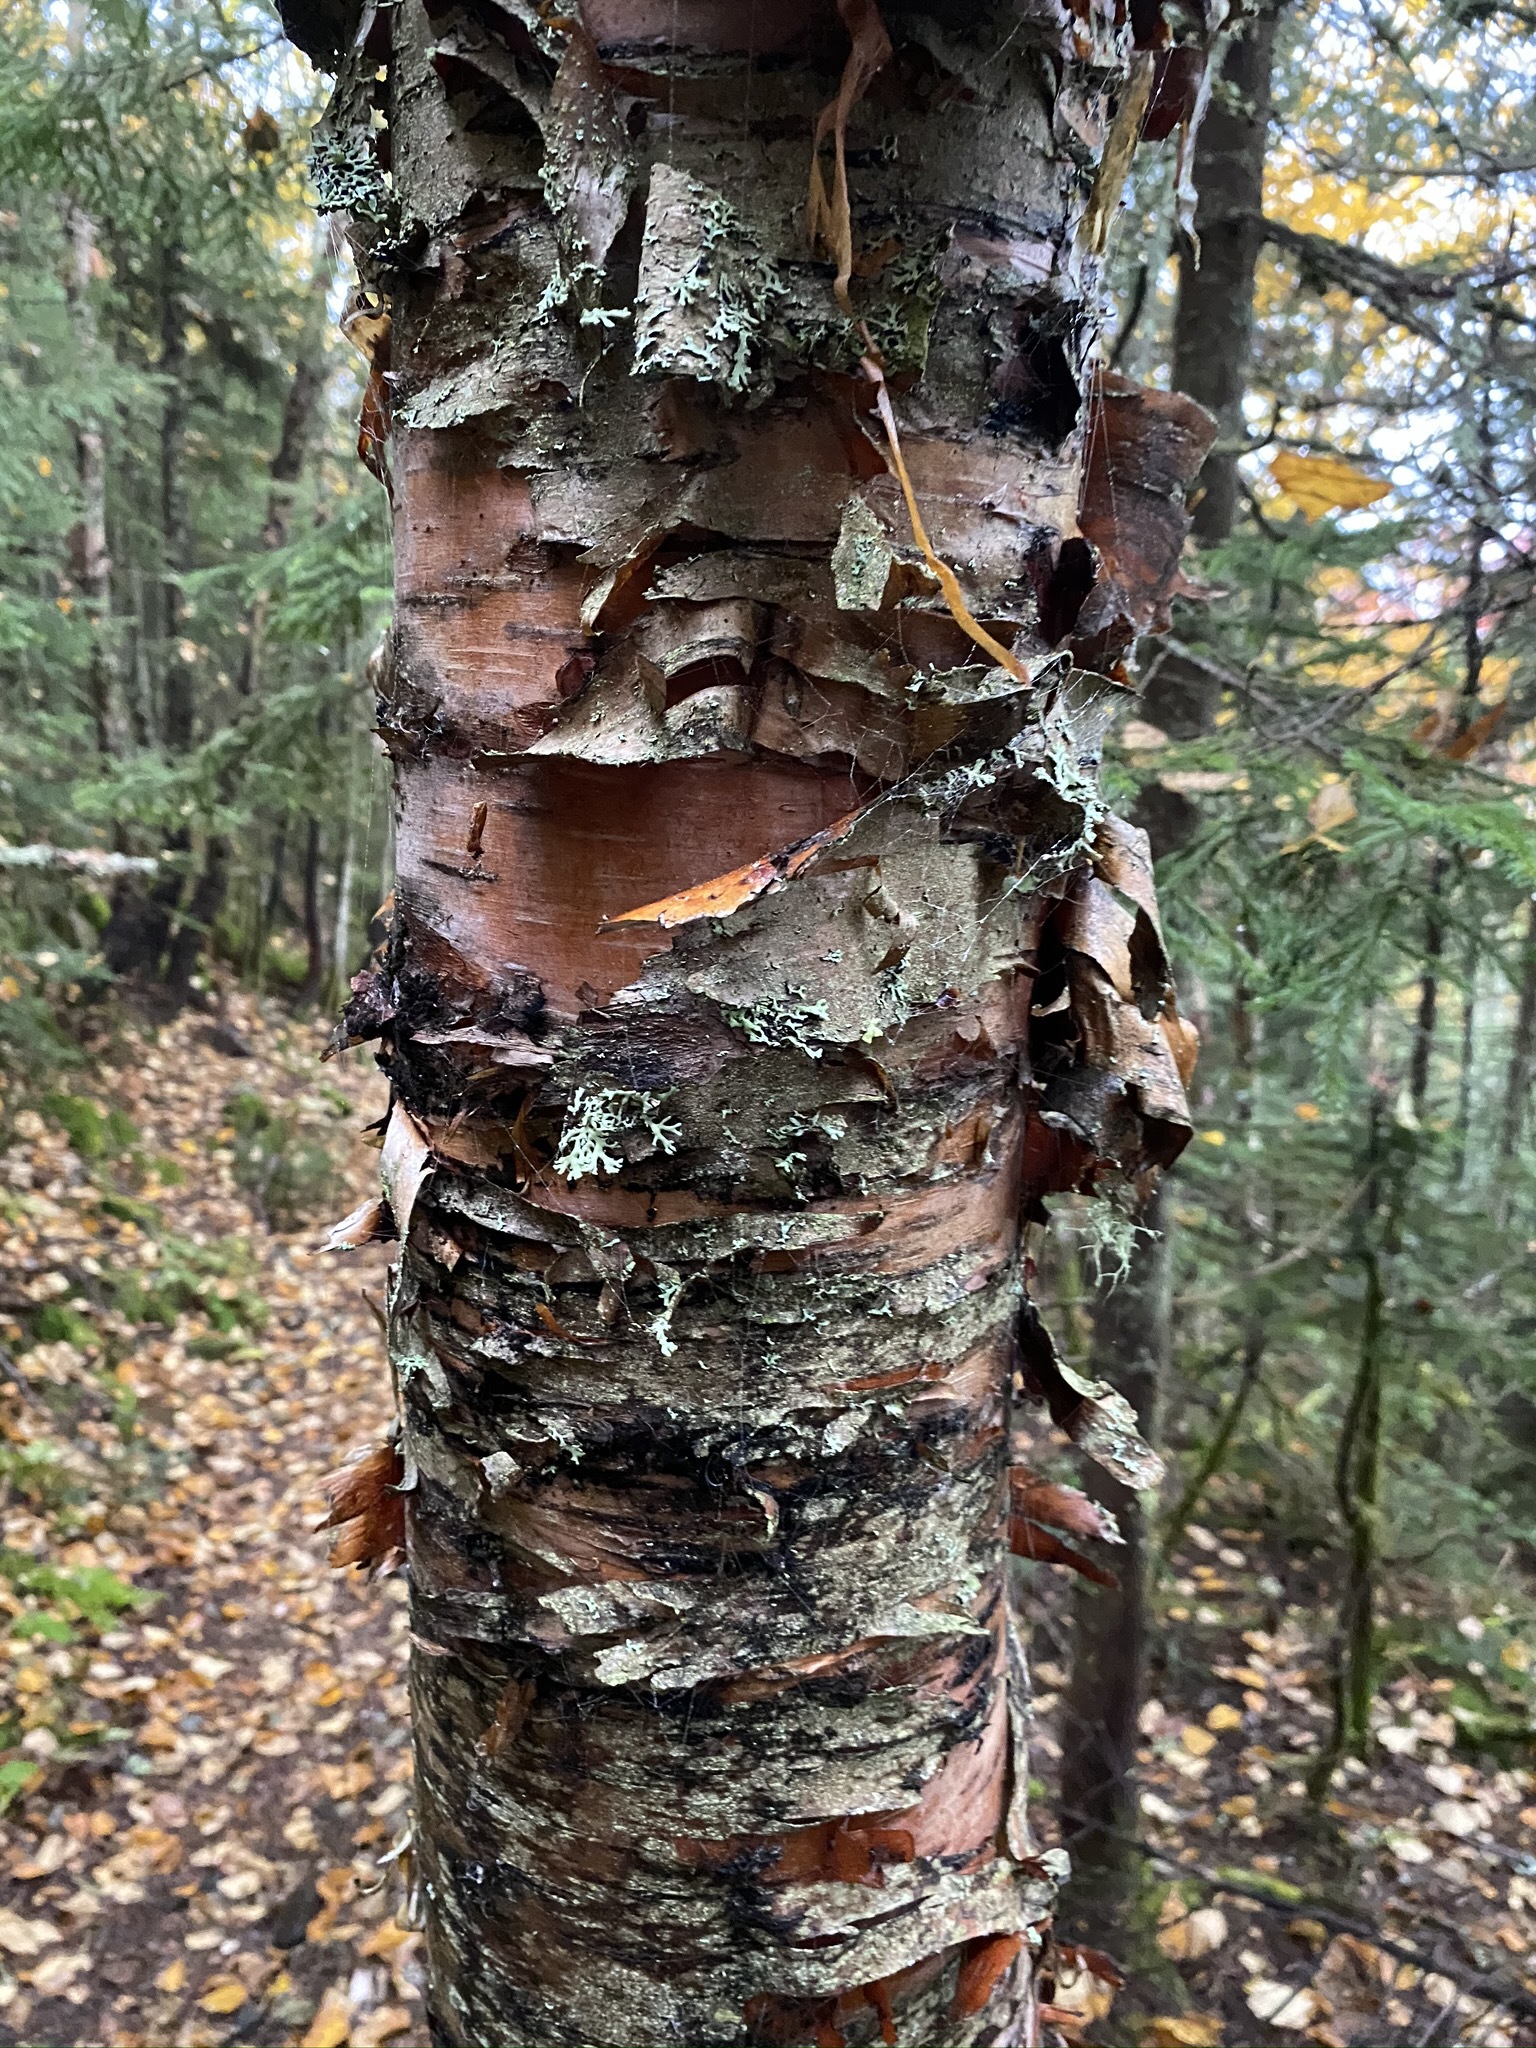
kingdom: Plantae
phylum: Tracheophyta
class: Magnoliopsida
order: Fagales
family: Betulaceae
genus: Betula
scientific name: Betula cordifolia
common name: Mountain white birch
